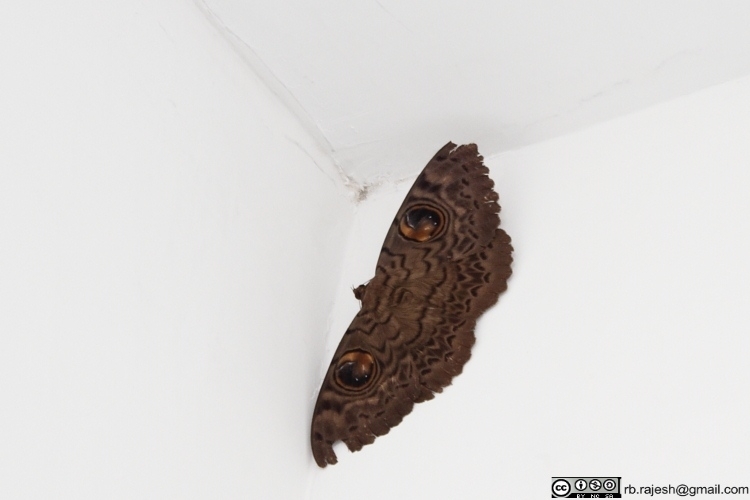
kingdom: Animalia
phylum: Arthropoda
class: Insecta
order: Lepidoptera
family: Erebidae
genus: Erebus
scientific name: Erebus macrops
